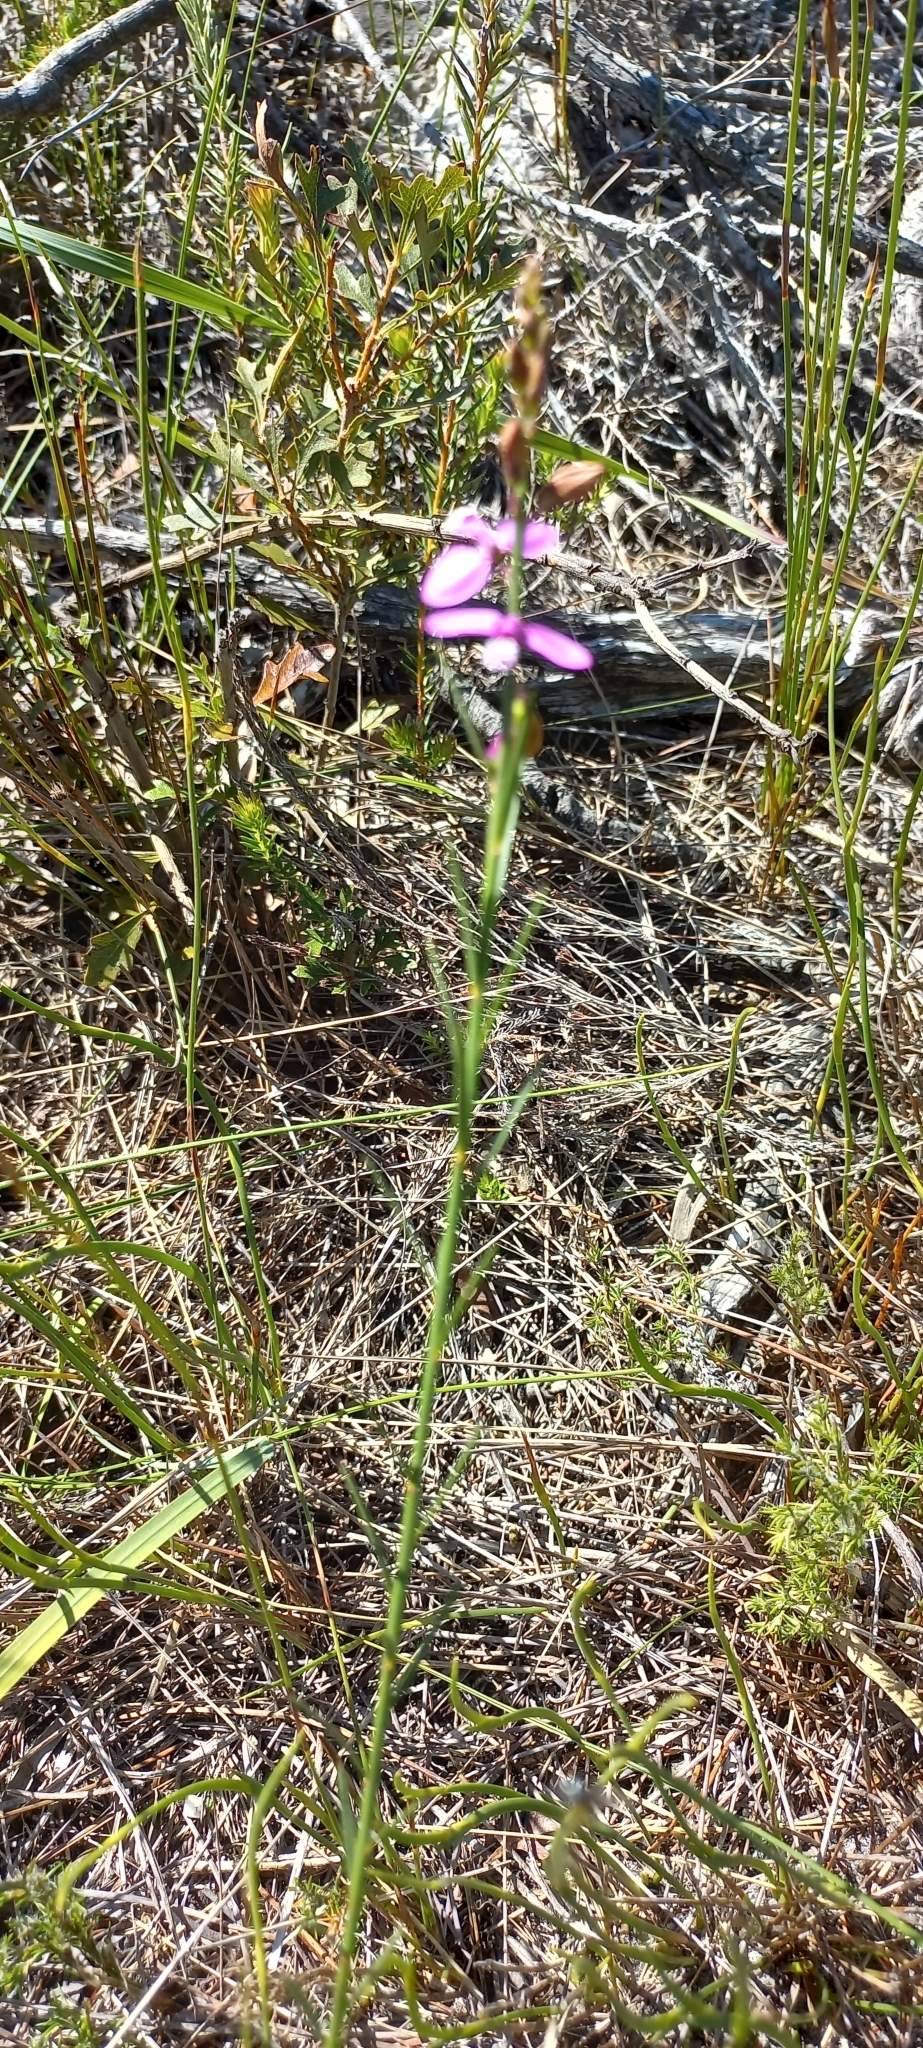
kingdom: Plantae
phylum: Tracheophyta
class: Magnoliopsida
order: Fabales
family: Polygalaceae
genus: Polygala
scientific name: Polygala garcini
